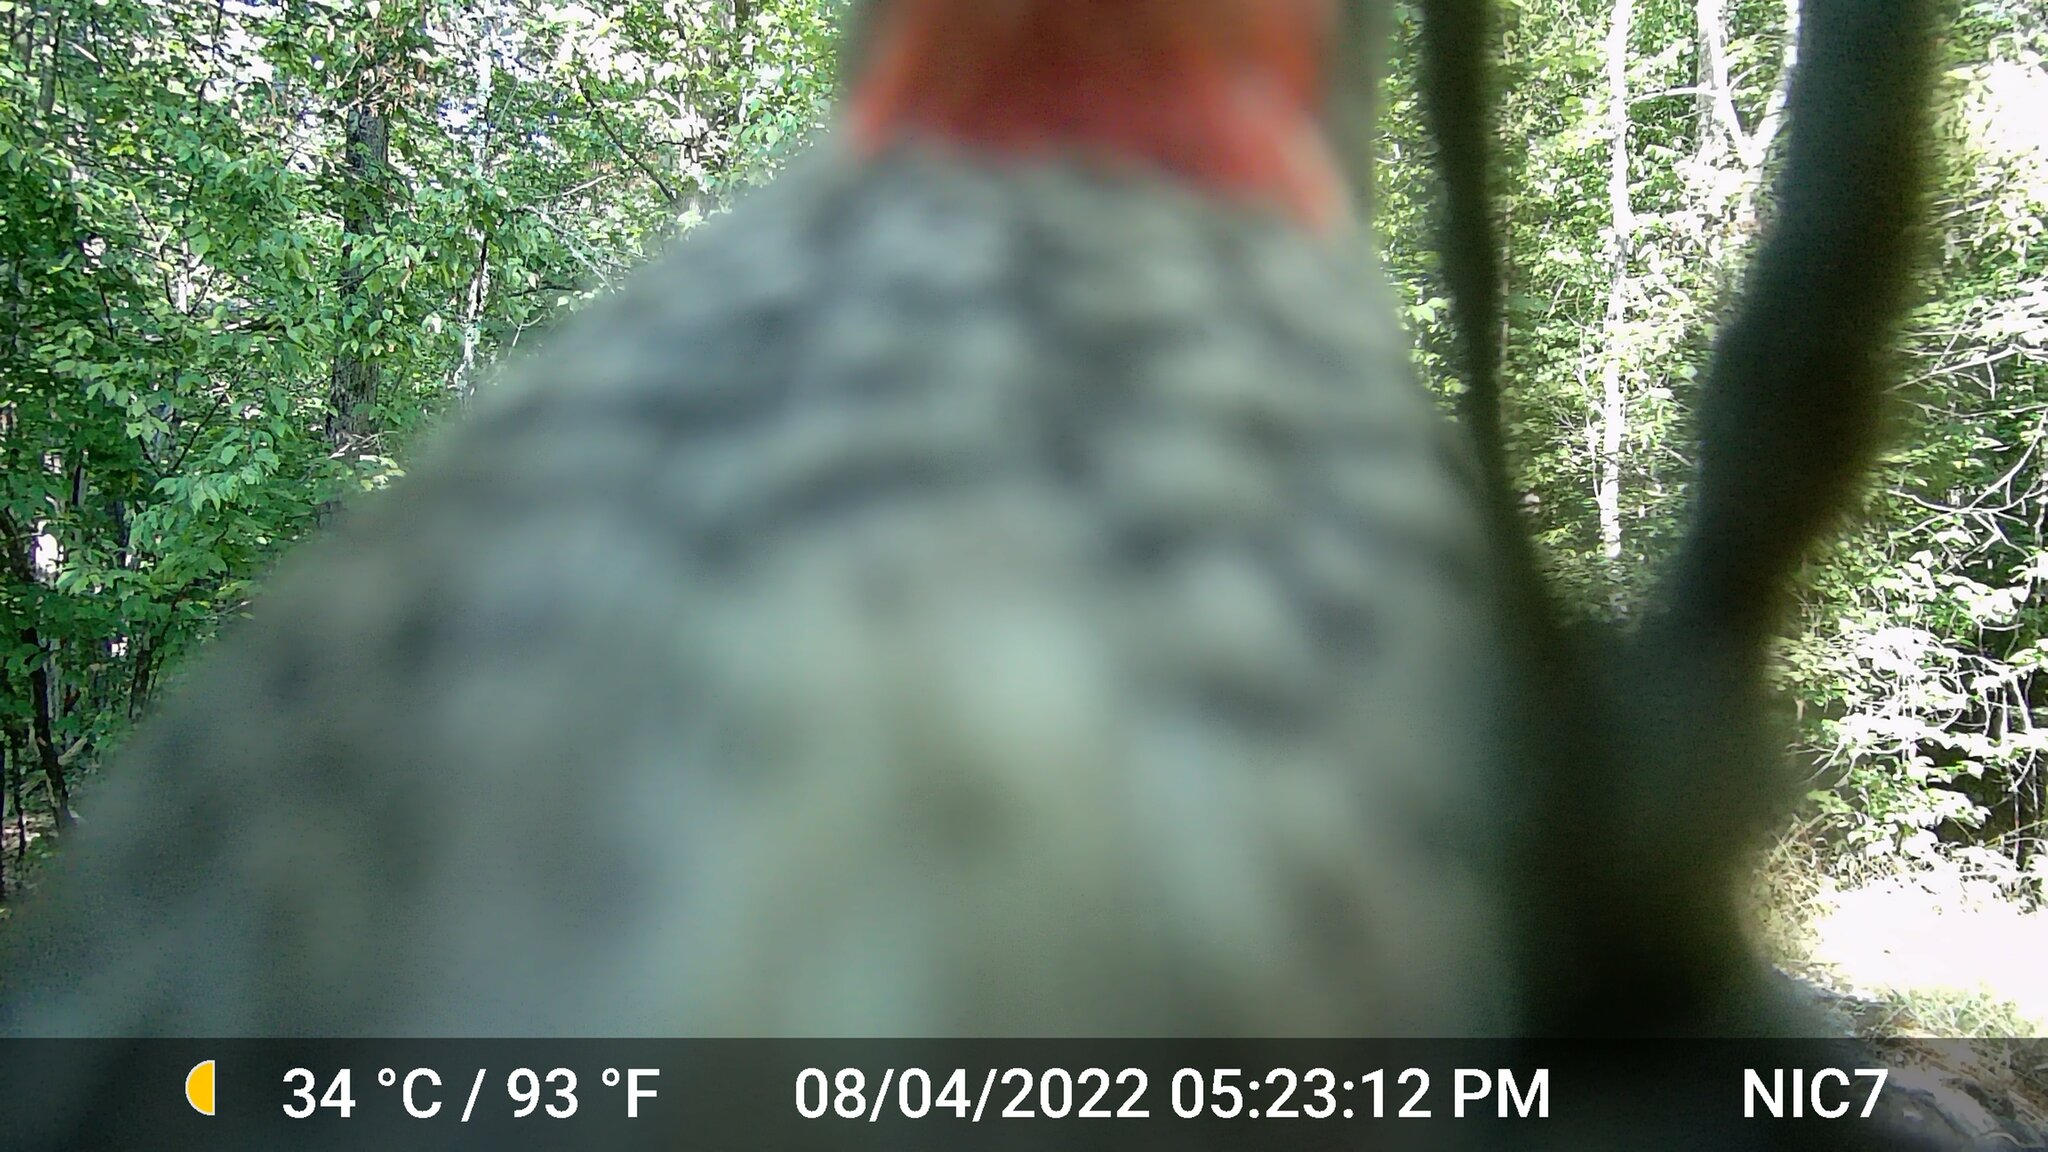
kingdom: Animalia
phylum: Chordata
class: Aves
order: Piciformes
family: Picidae
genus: Sphyrapicus
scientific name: Sphyrapicus varius
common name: Yellow-bellied sapsucker
